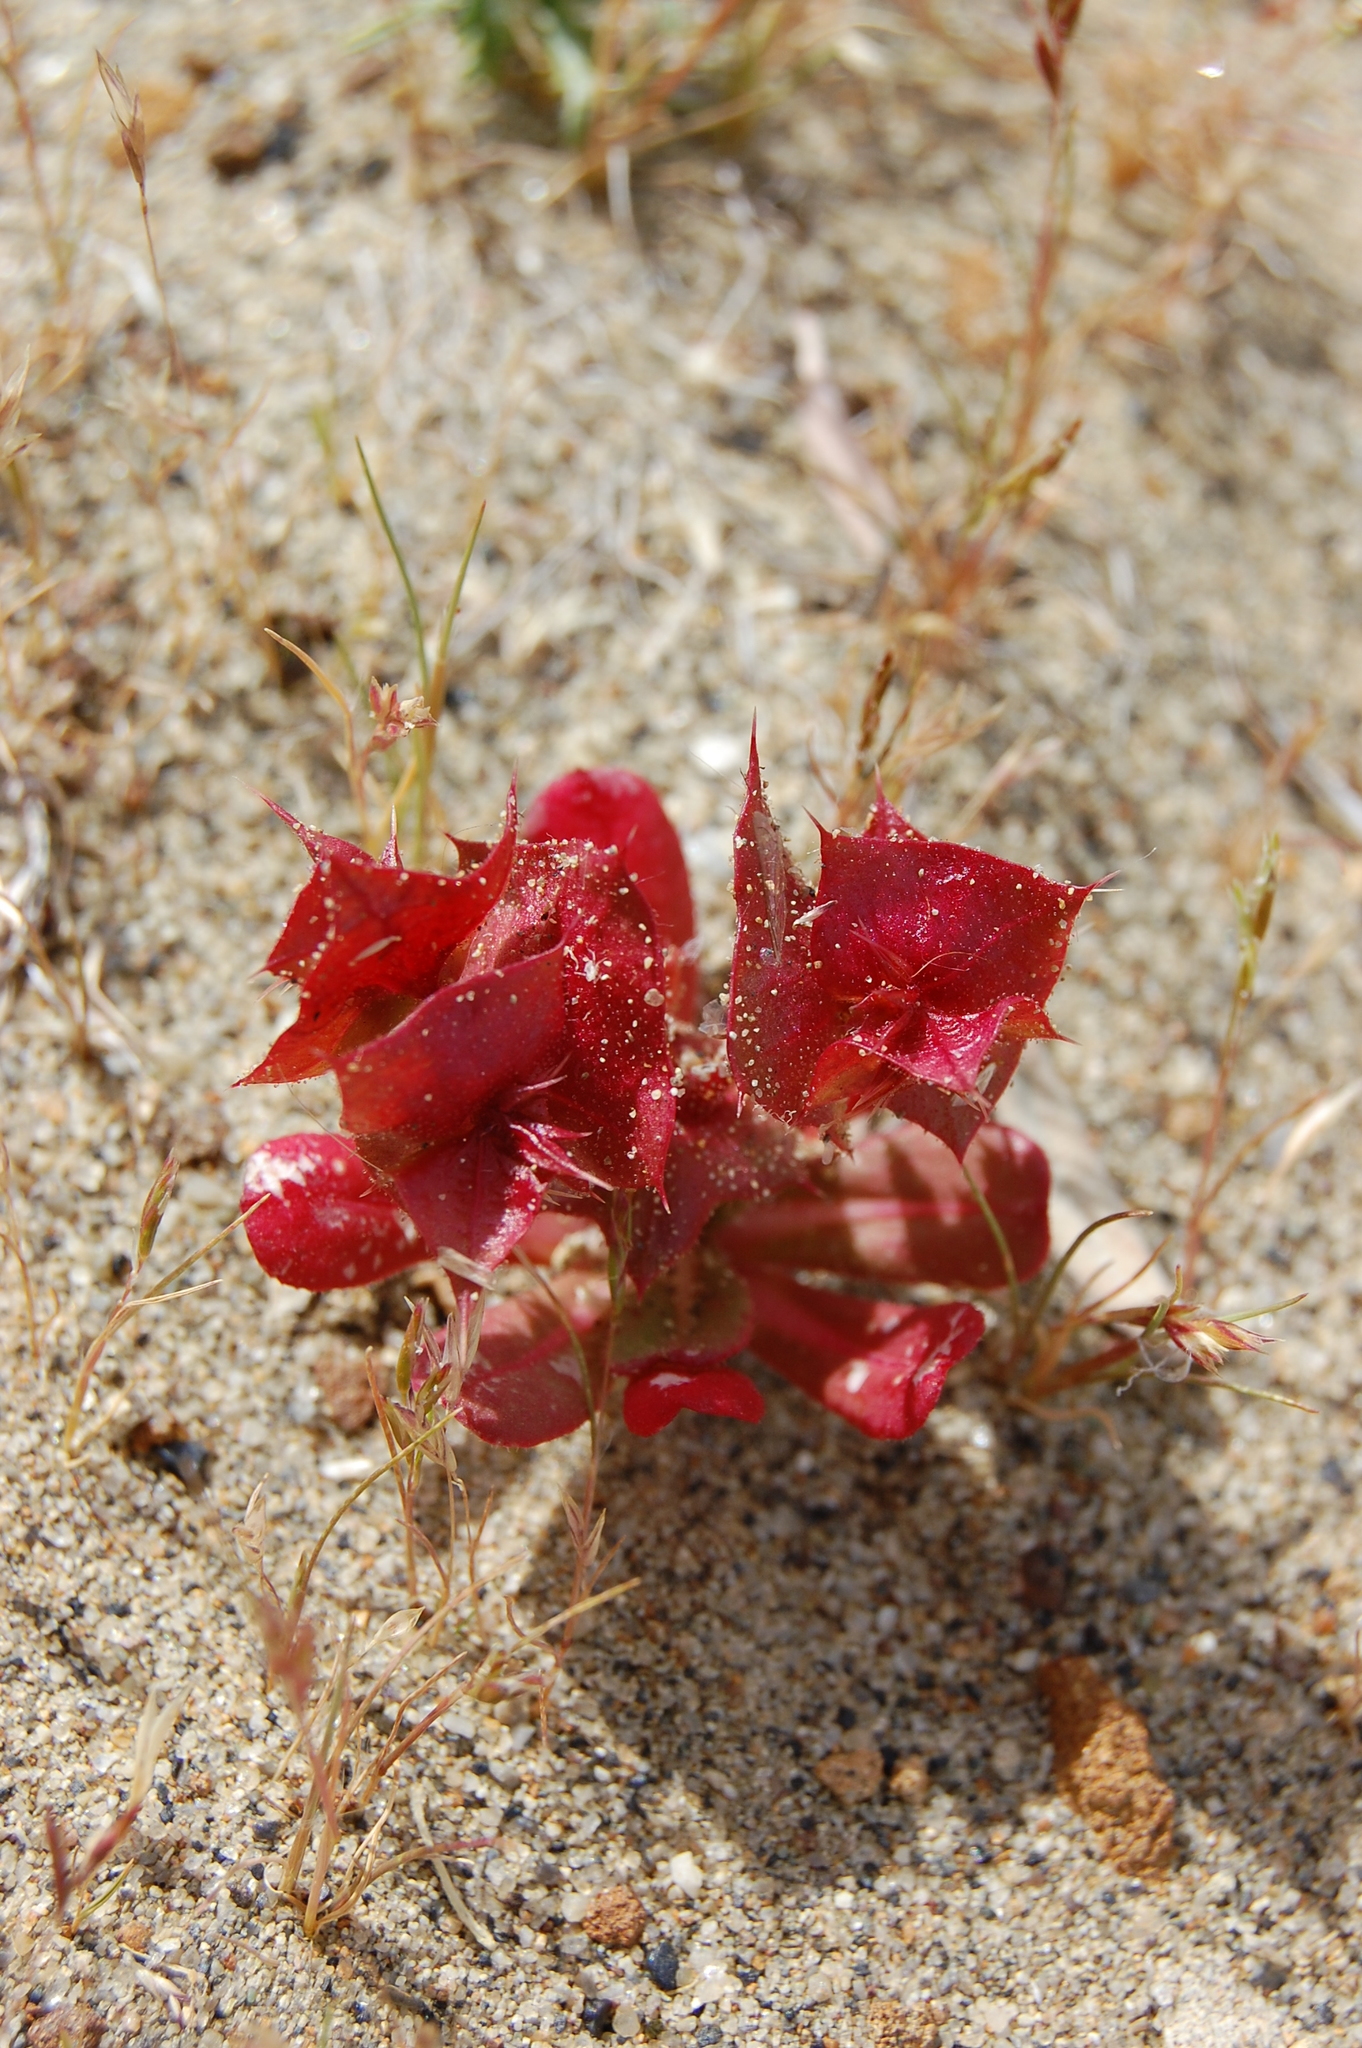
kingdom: Plantae
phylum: Tracheophyta
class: Magnoliopsida
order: Caryophyllales
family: Polygonaceae
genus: Mucronea
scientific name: Mucronea perfoliata
